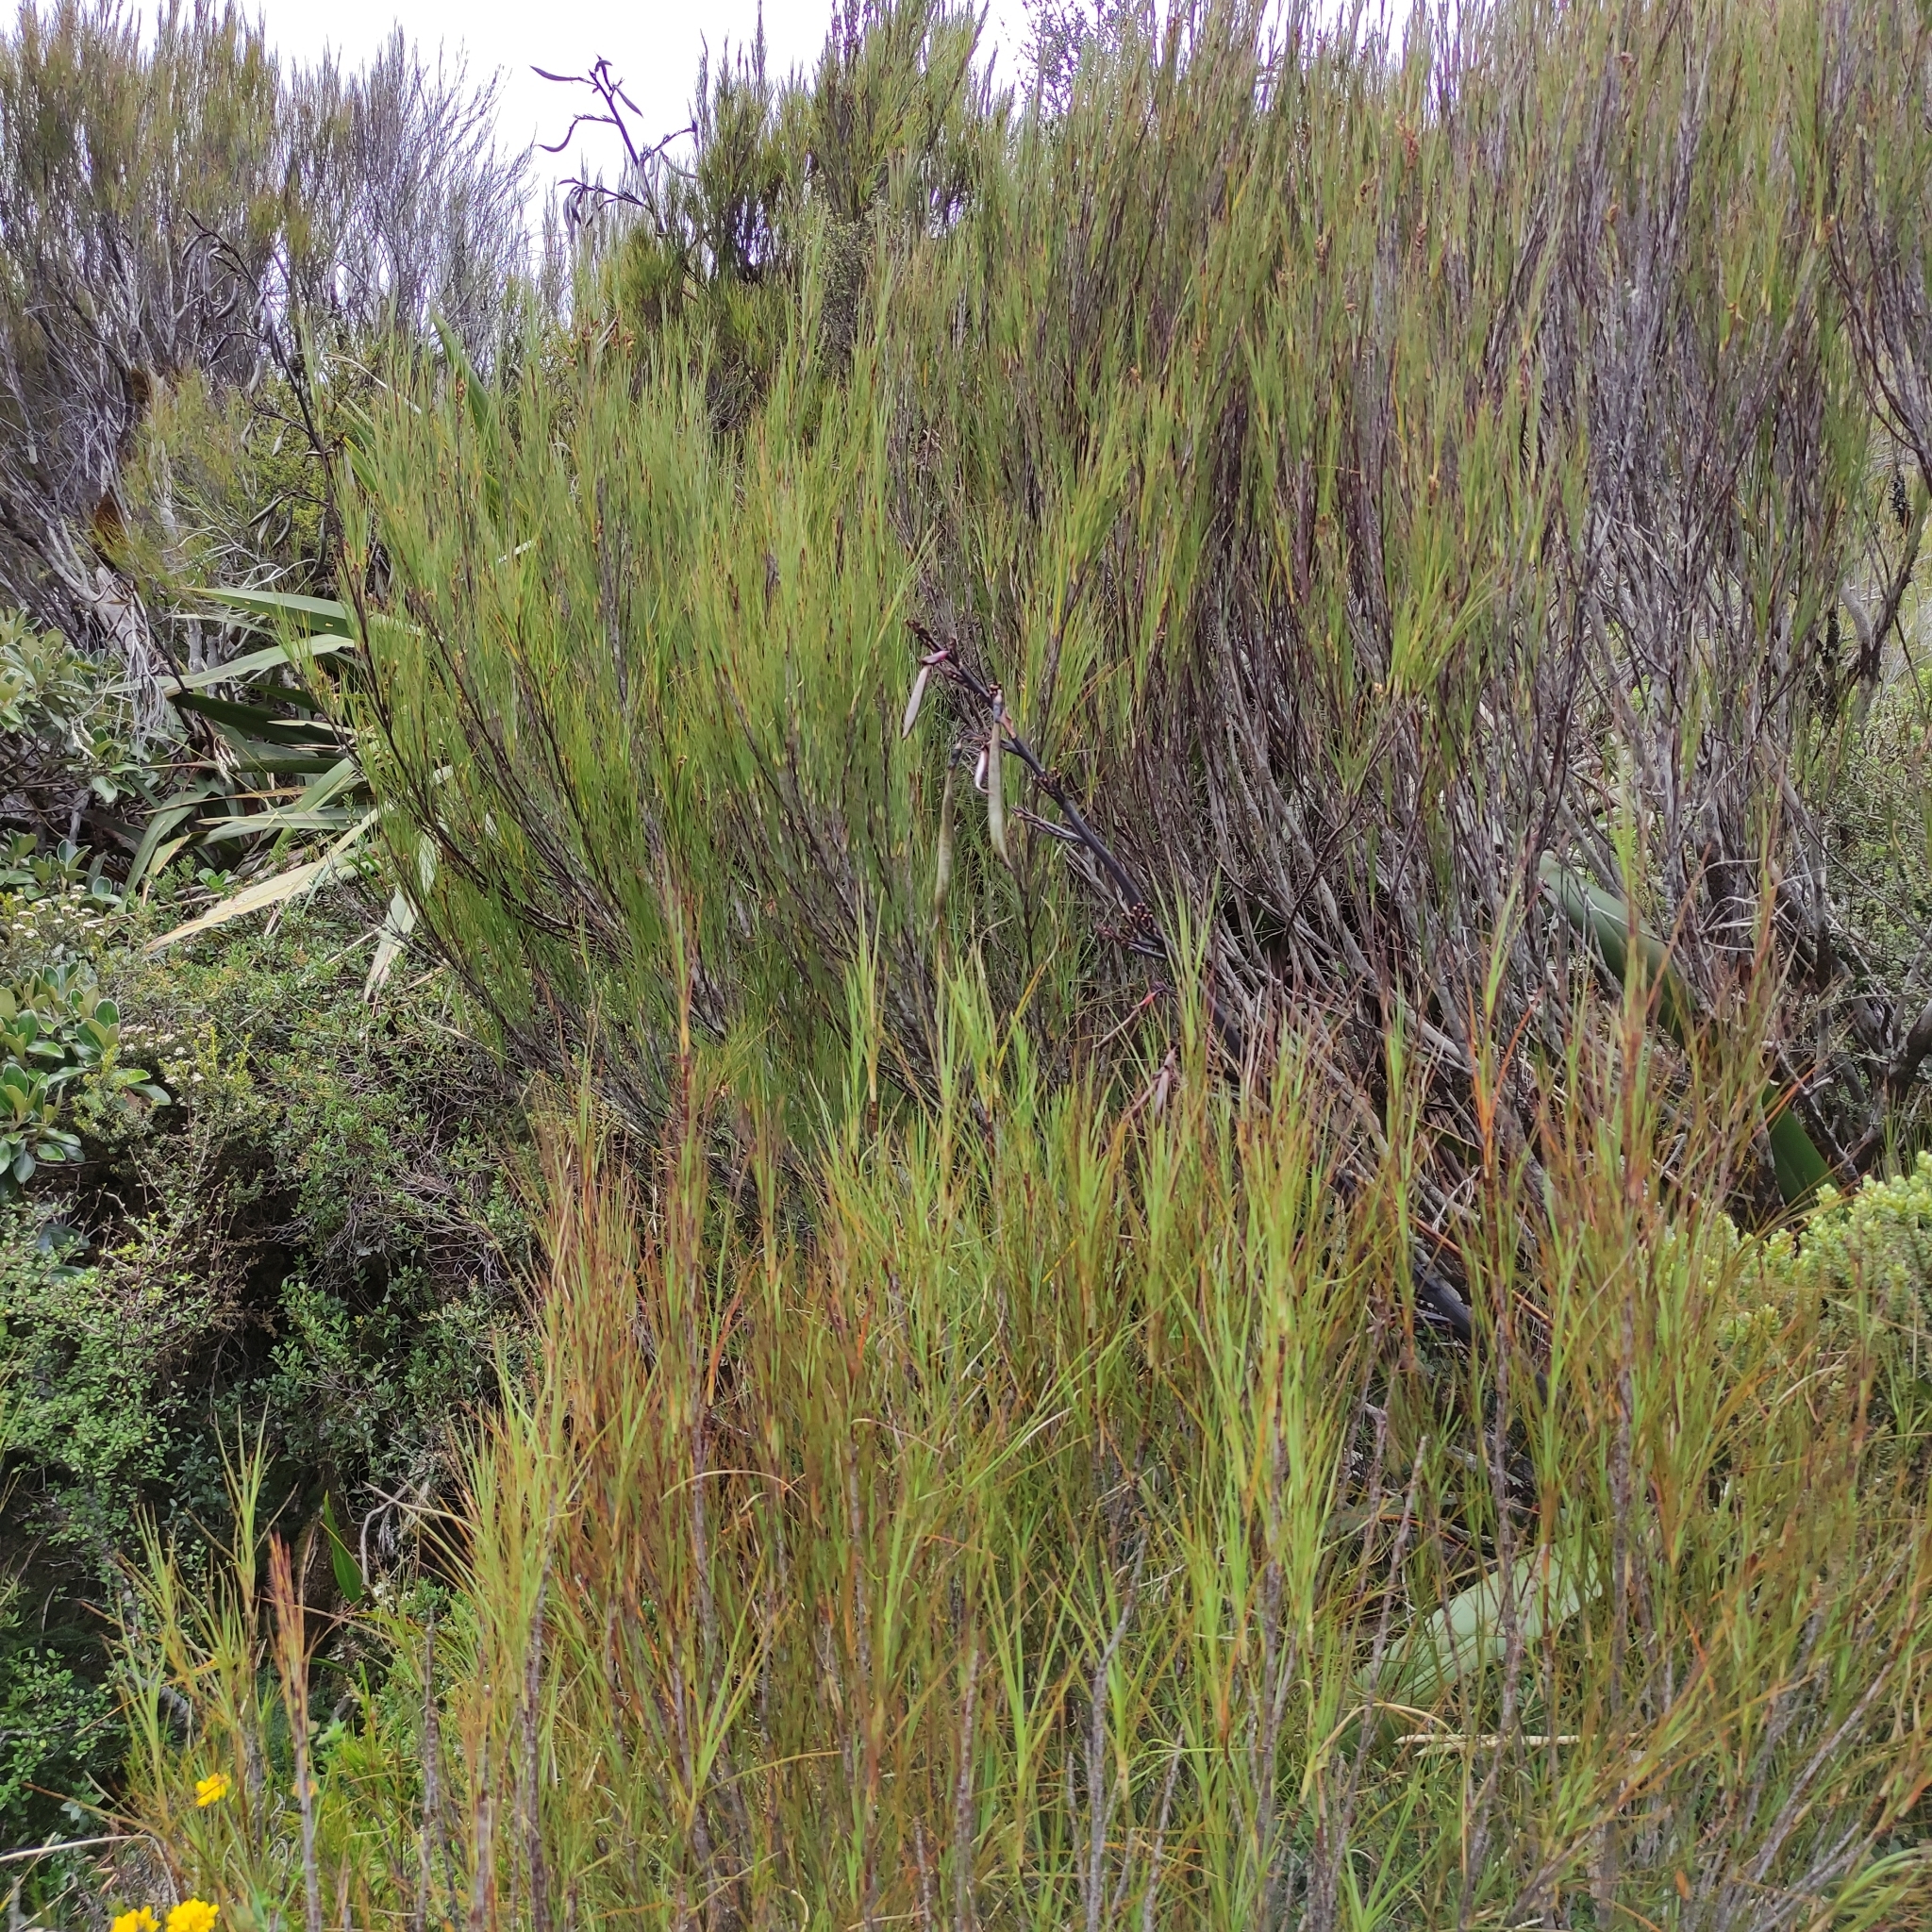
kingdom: Plantae
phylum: Tracheophyta
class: Magnoliopsida
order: Ericales
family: Ericaceae
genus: Dracophyllum
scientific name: Dracophyllum longifolium
